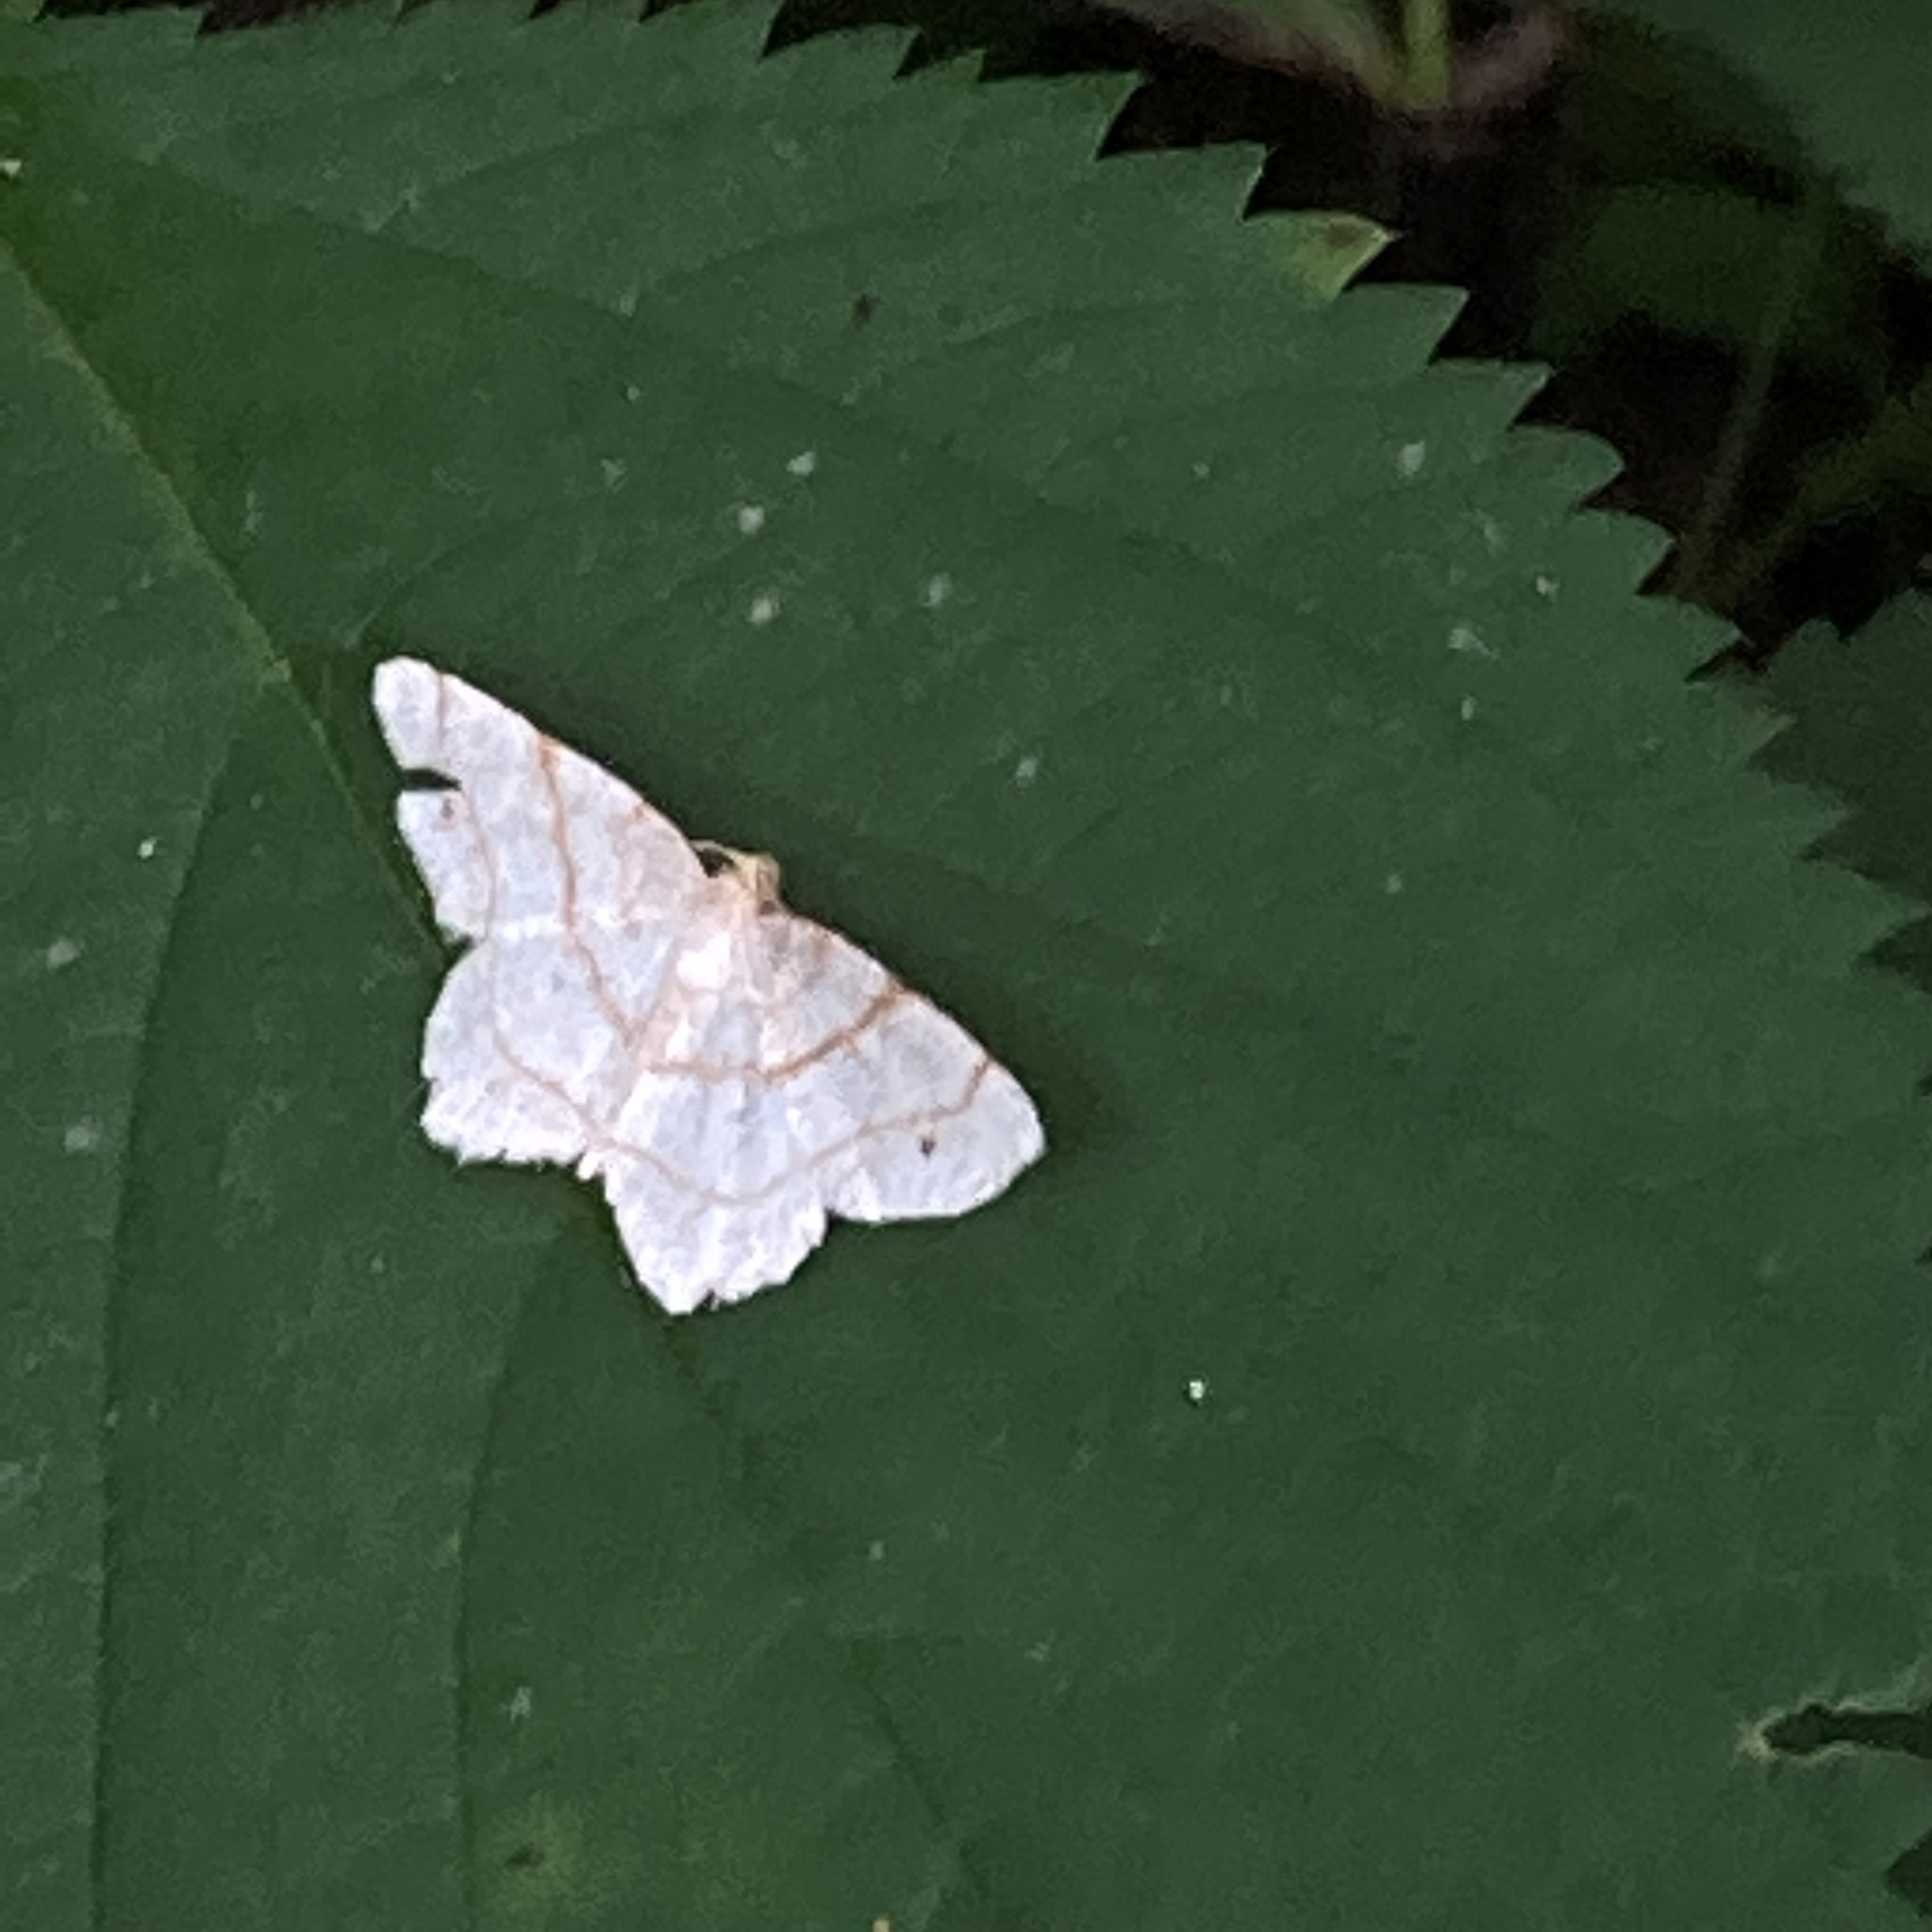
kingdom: Animalia
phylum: Arthropoda
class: Insecta
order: Lepidoptera
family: Geometridae
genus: Trigrammia
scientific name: Trigrammia quadrinotaria
